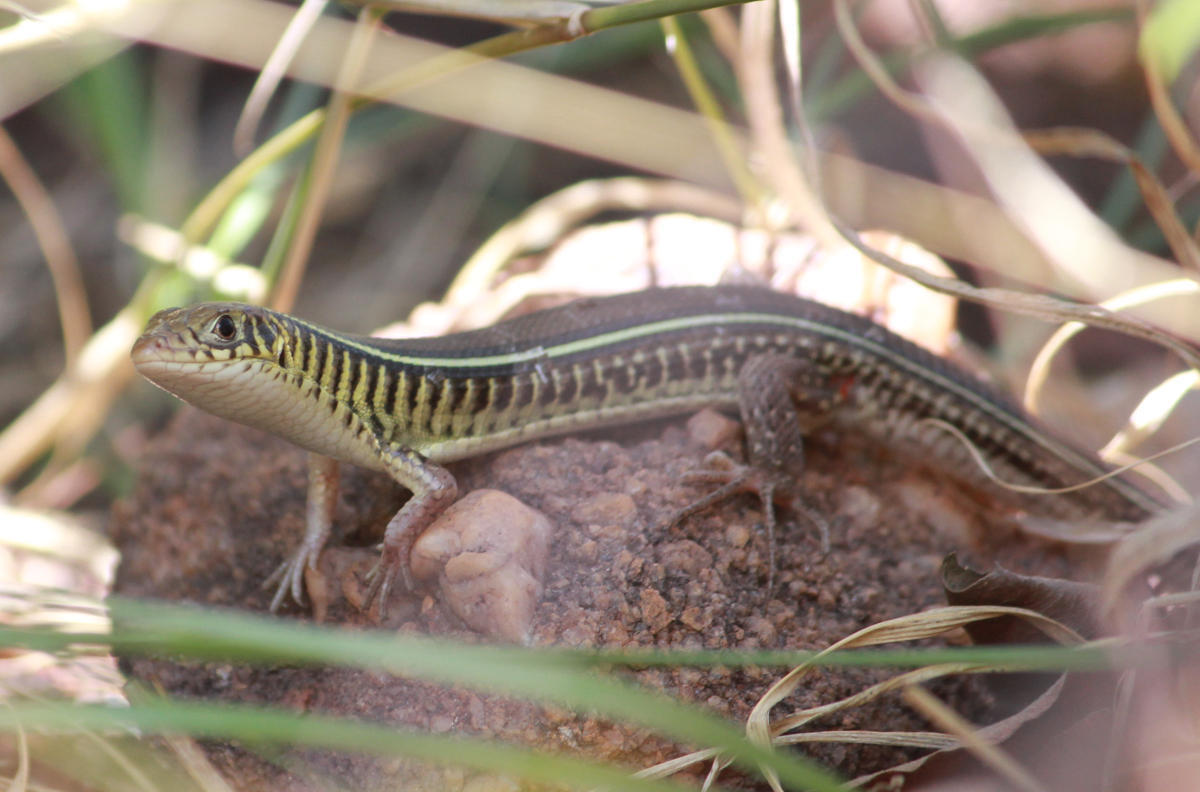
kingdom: Animalia
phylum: Chordata
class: Squamata
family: Gerrhosauridae
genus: Gerrhosaurus
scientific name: Gerrhosaurus flavigularis
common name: Yellow-throated plated lizard
